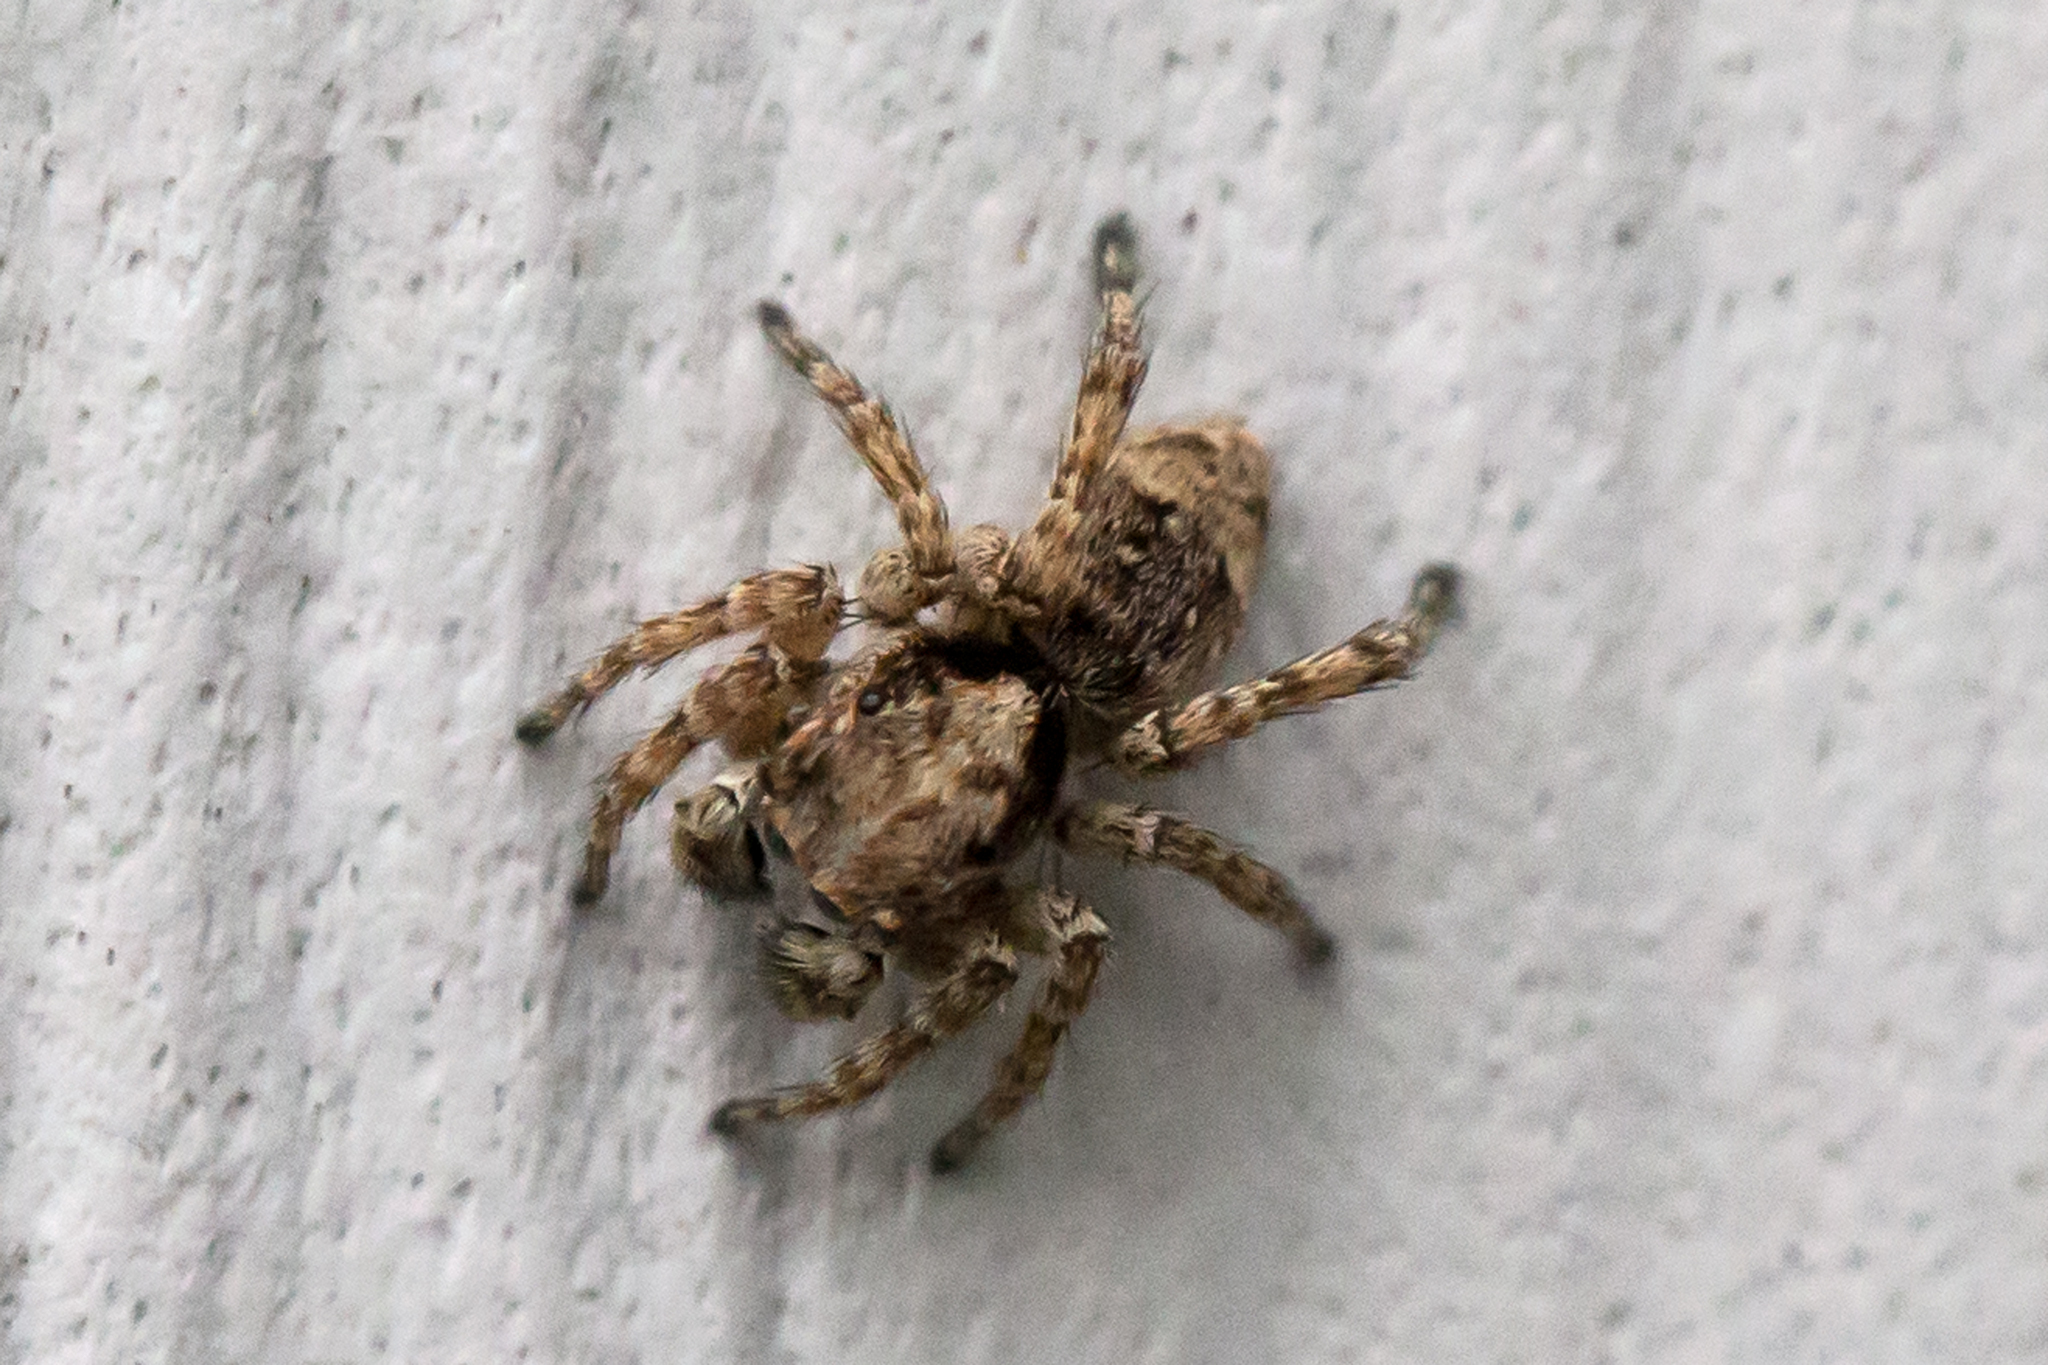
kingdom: Animalia
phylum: Arthropoda
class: Arachnida
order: Araneae
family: Salticidae
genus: Attulus
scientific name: Attulus fasciger
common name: Asiatic wall jumping spider
